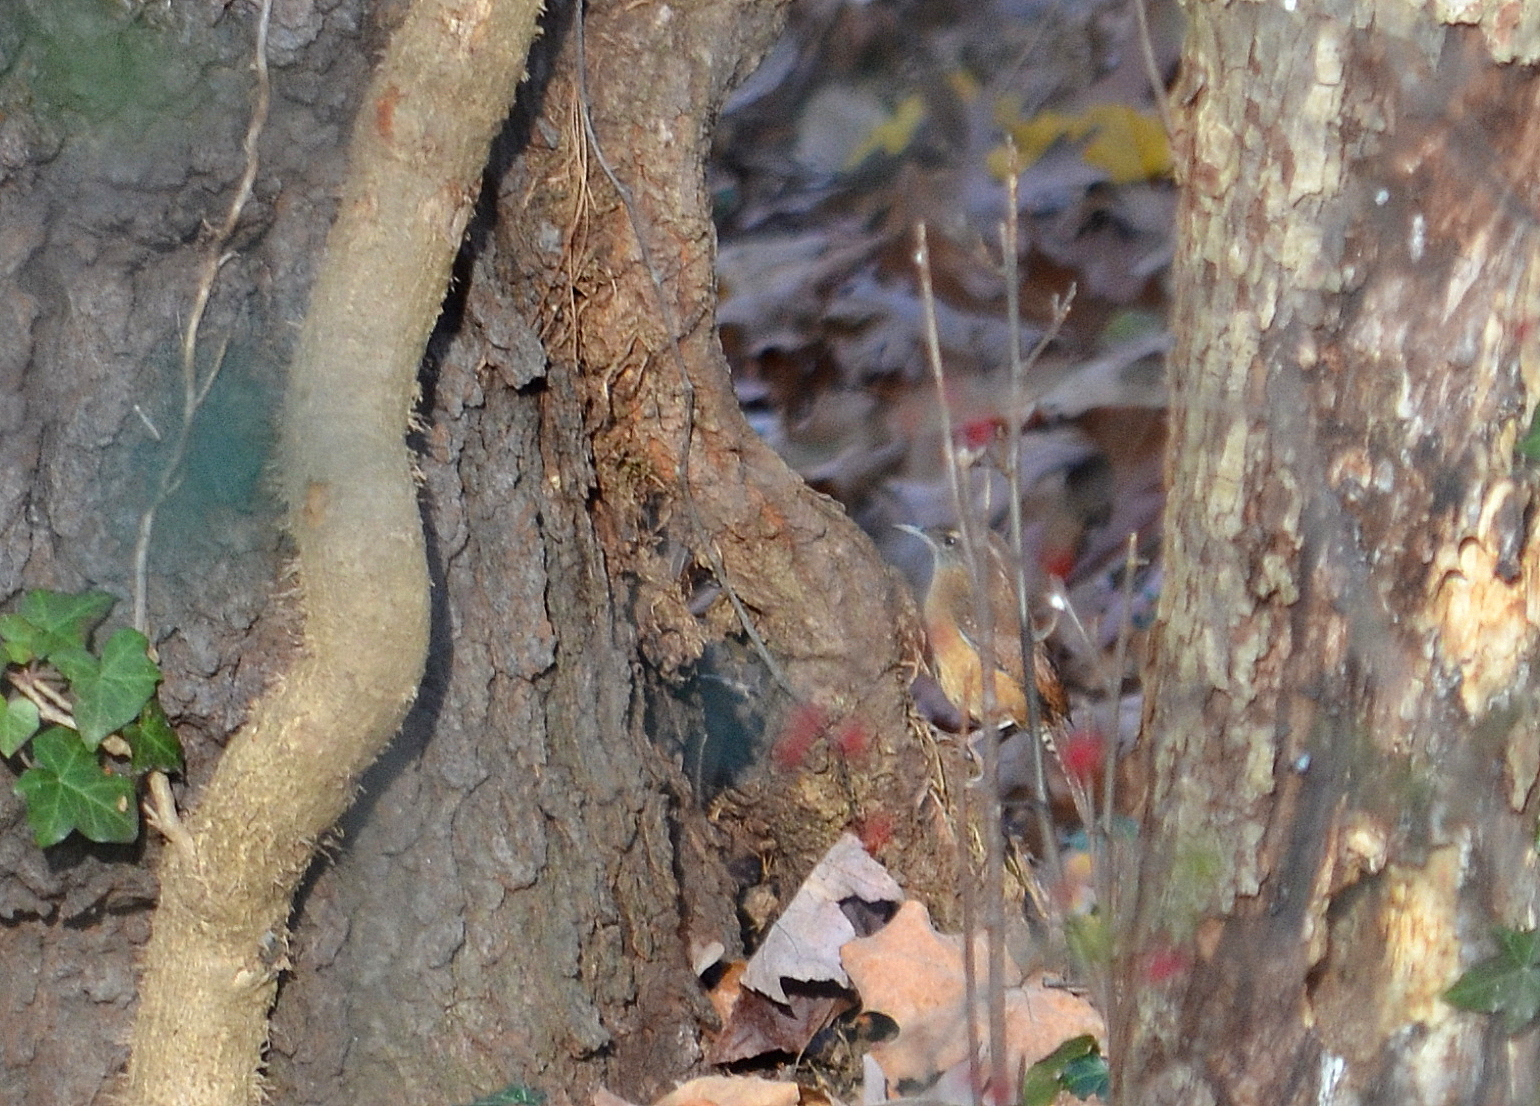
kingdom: Animalia
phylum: Chordata
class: Aves
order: Passeriformes
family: Troglodytidae
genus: Thryothorus
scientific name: Thryothorus ludovicianus
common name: Carolina wren
